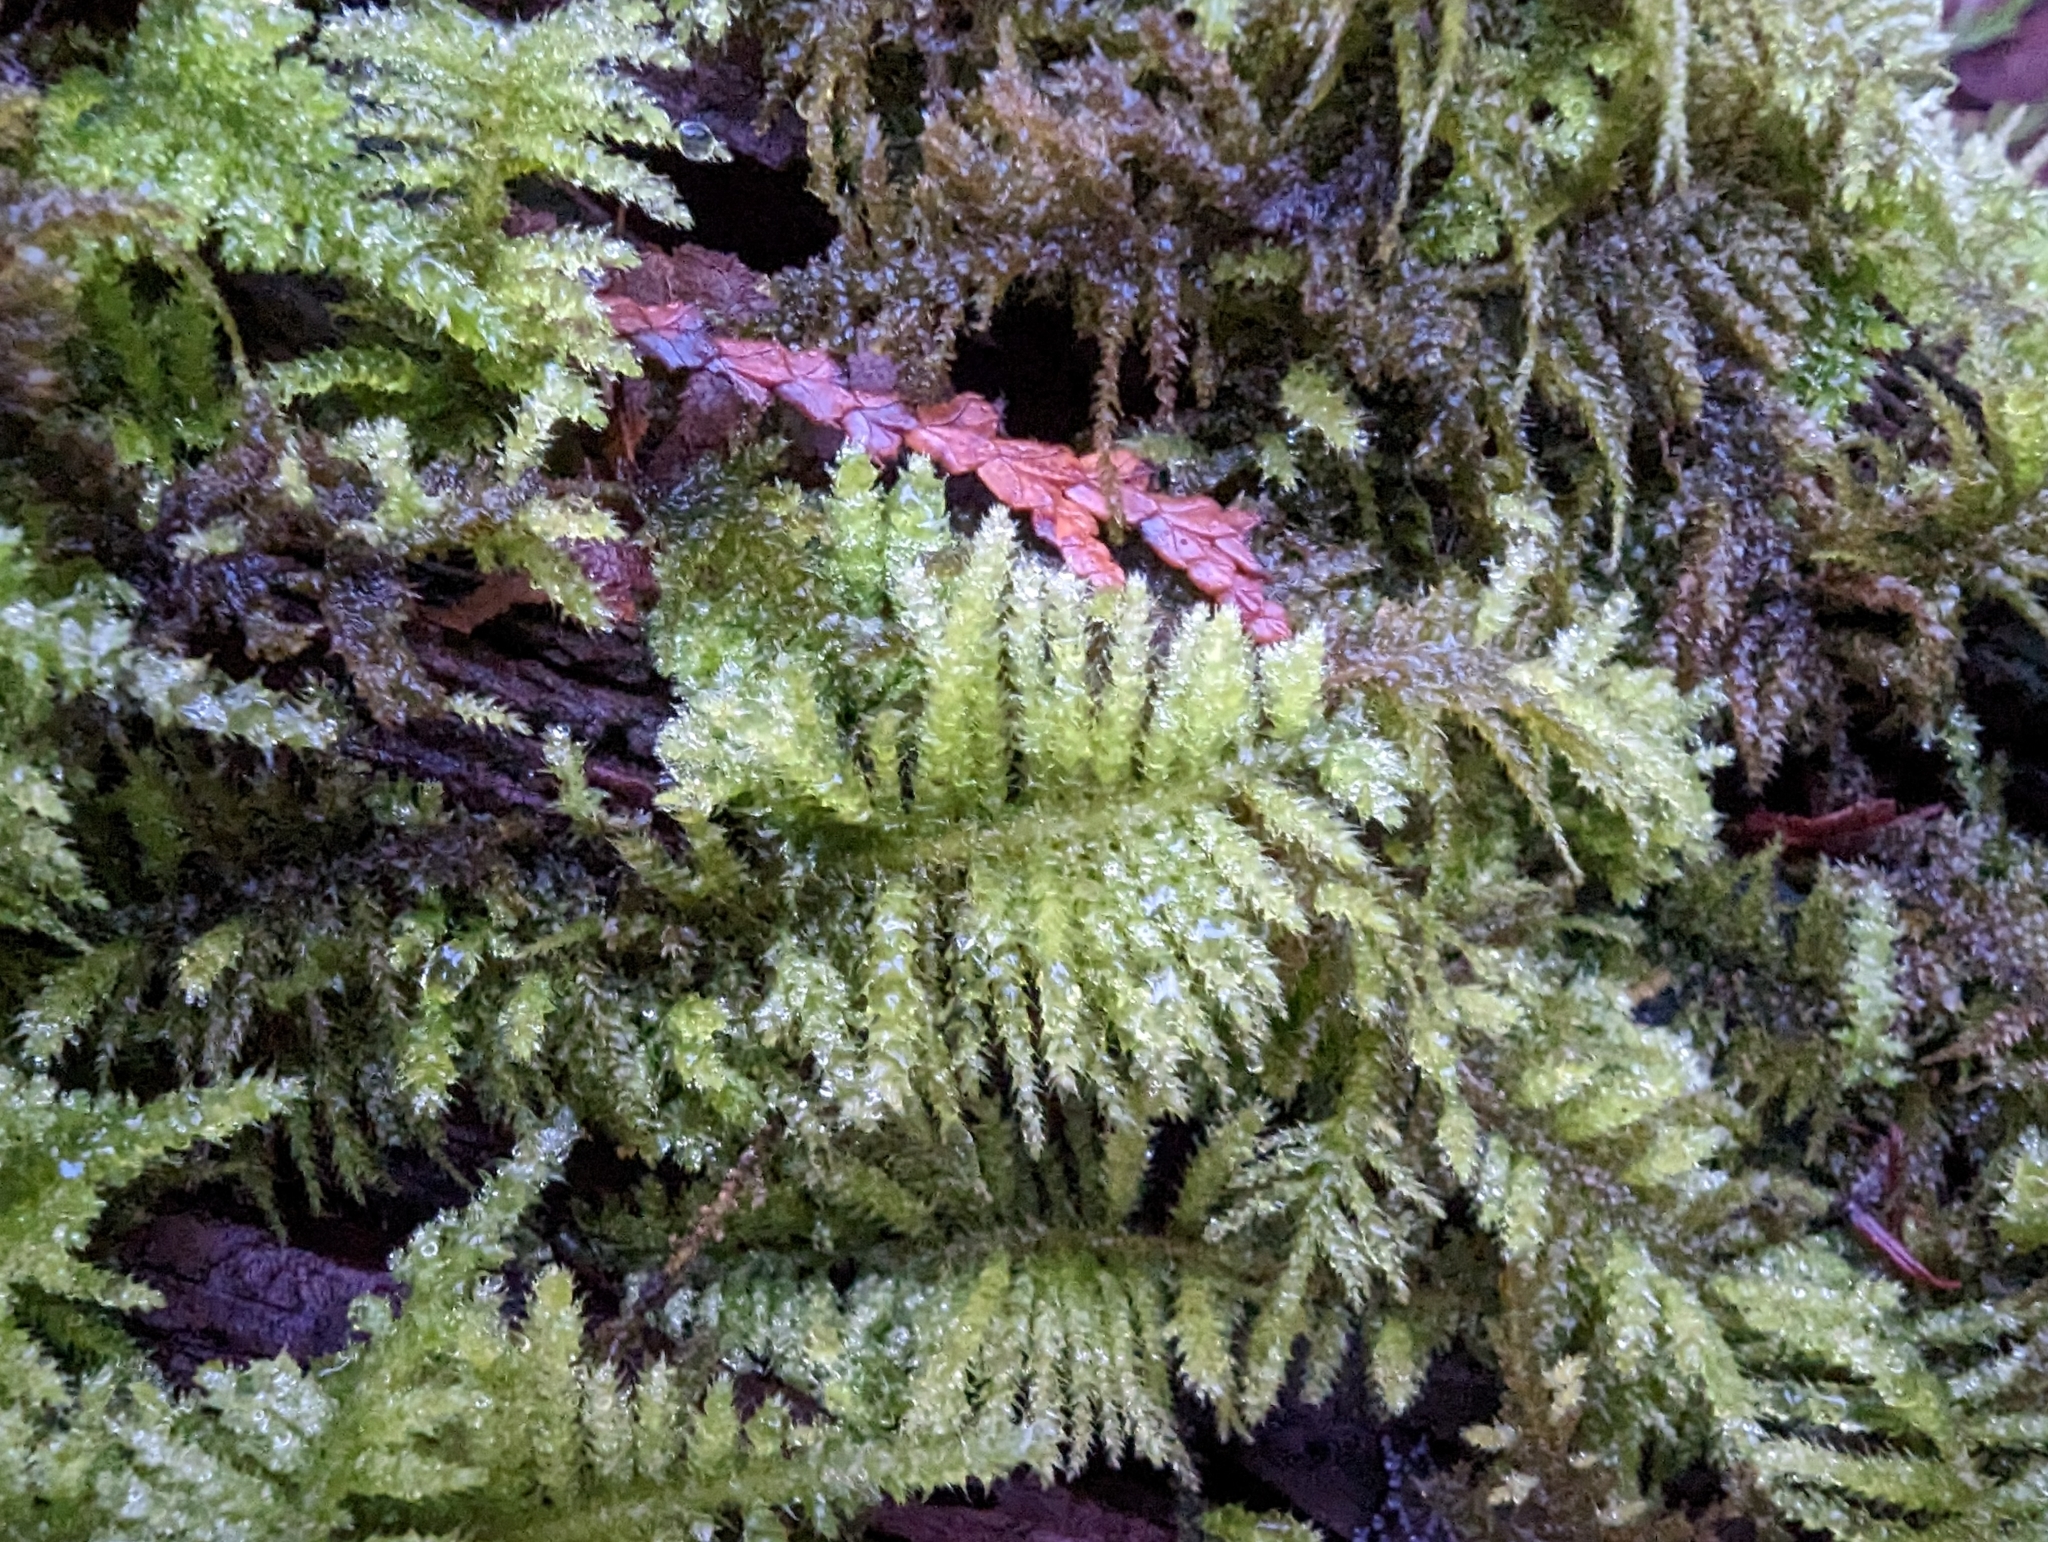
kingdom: Plantae
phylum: Bryophyta
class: Bryopsida
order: Hypnales
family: Brachytheciaceae
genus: Kindbergia
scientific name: Kindbergia oregana
